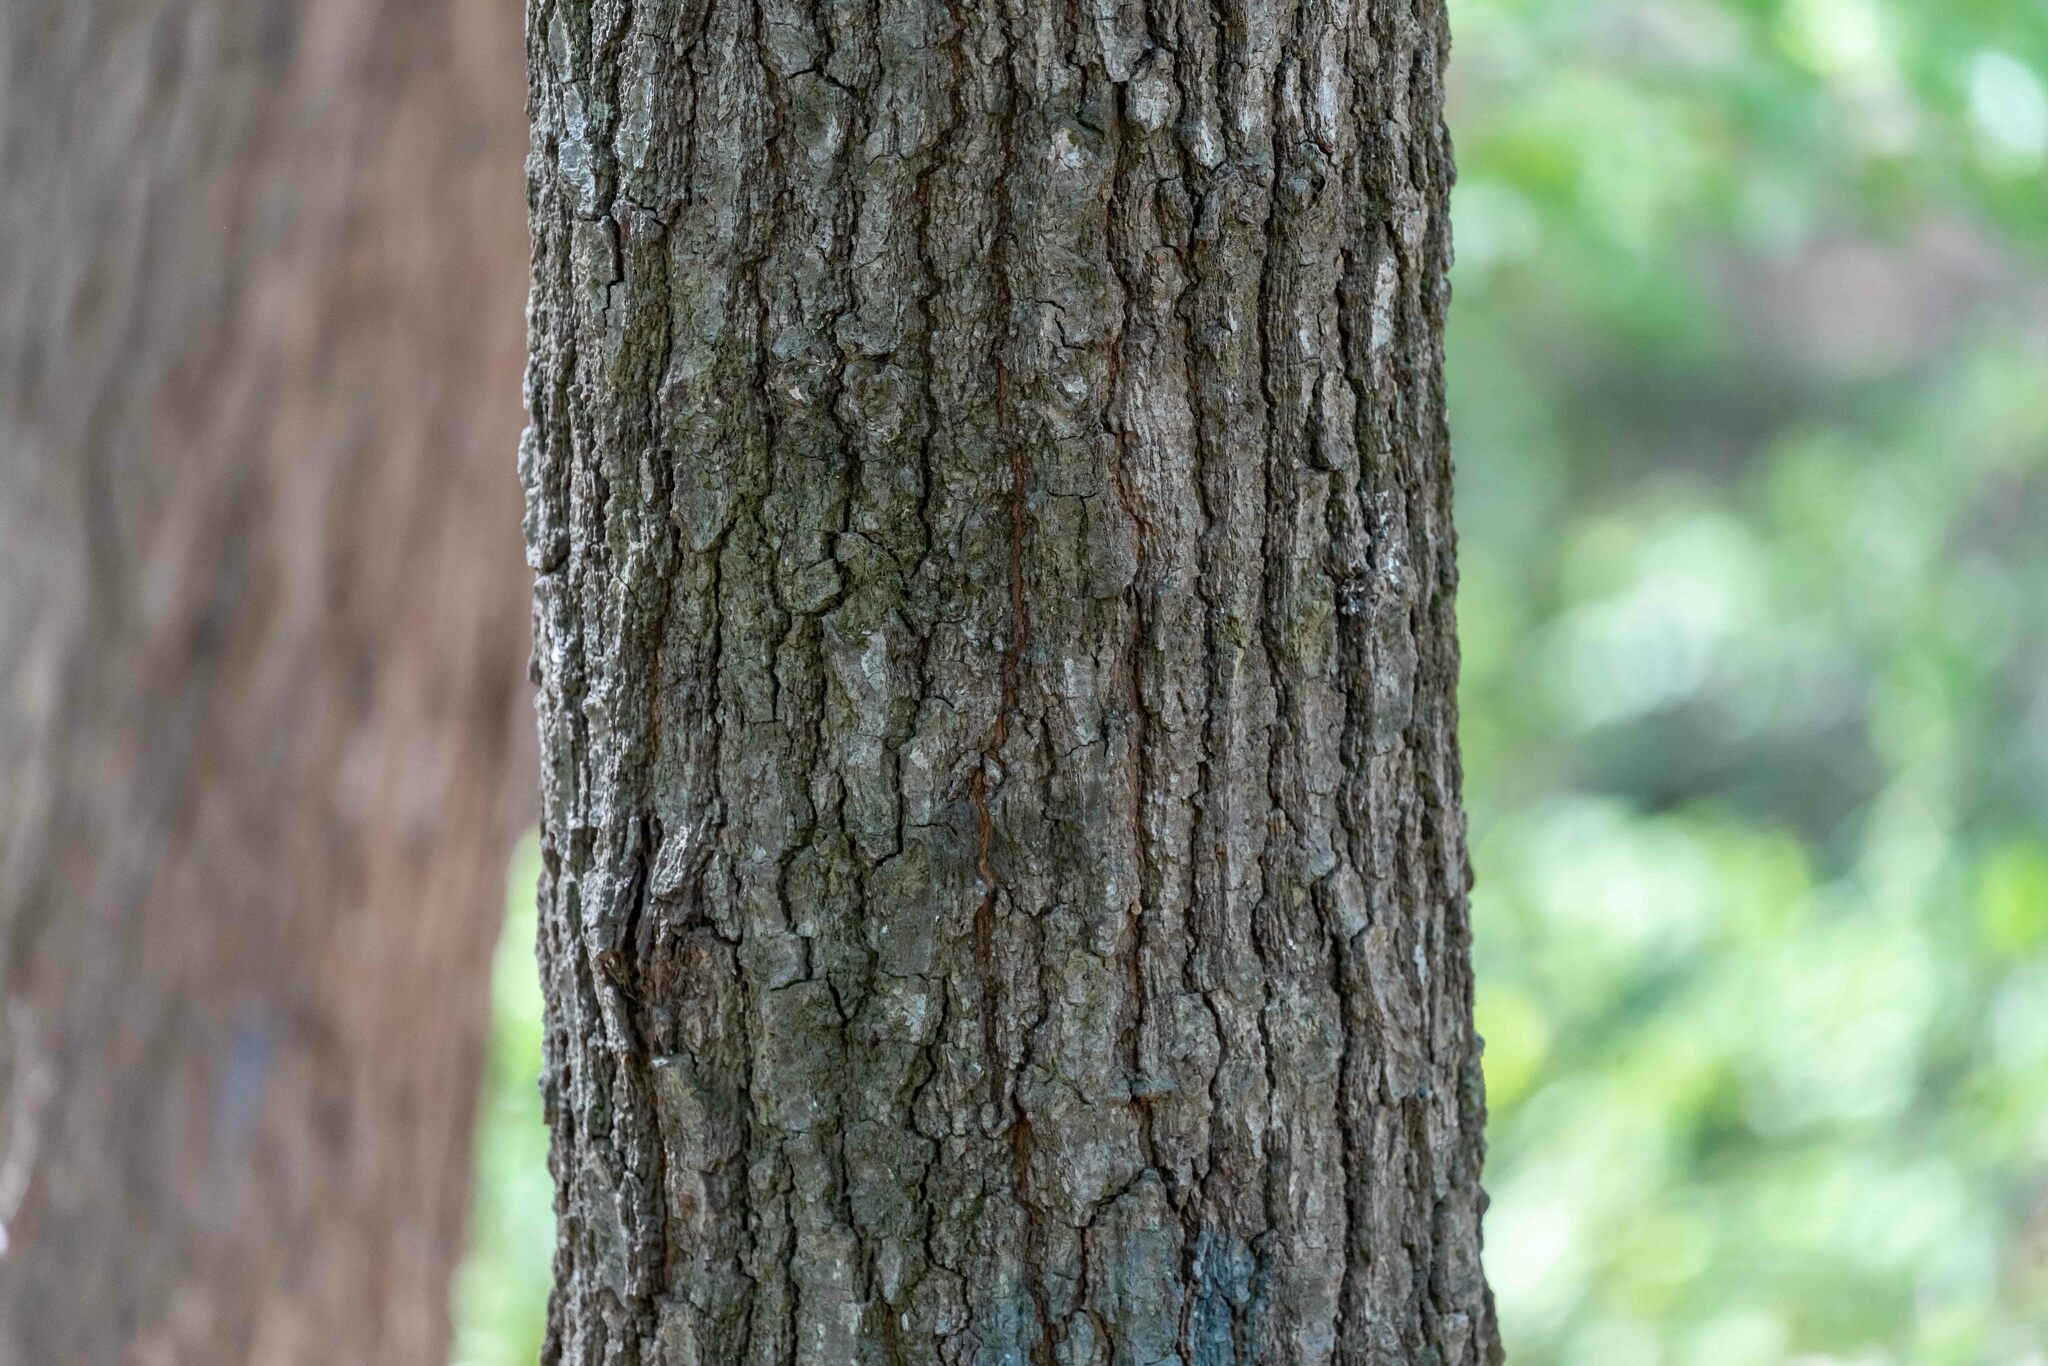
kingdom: Plantae
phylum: Tracheophyta
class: Magnoliopsida
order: Fagales
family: Fagaceae
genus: Quercus
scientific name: Quercus falcata
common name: Southern red oak
